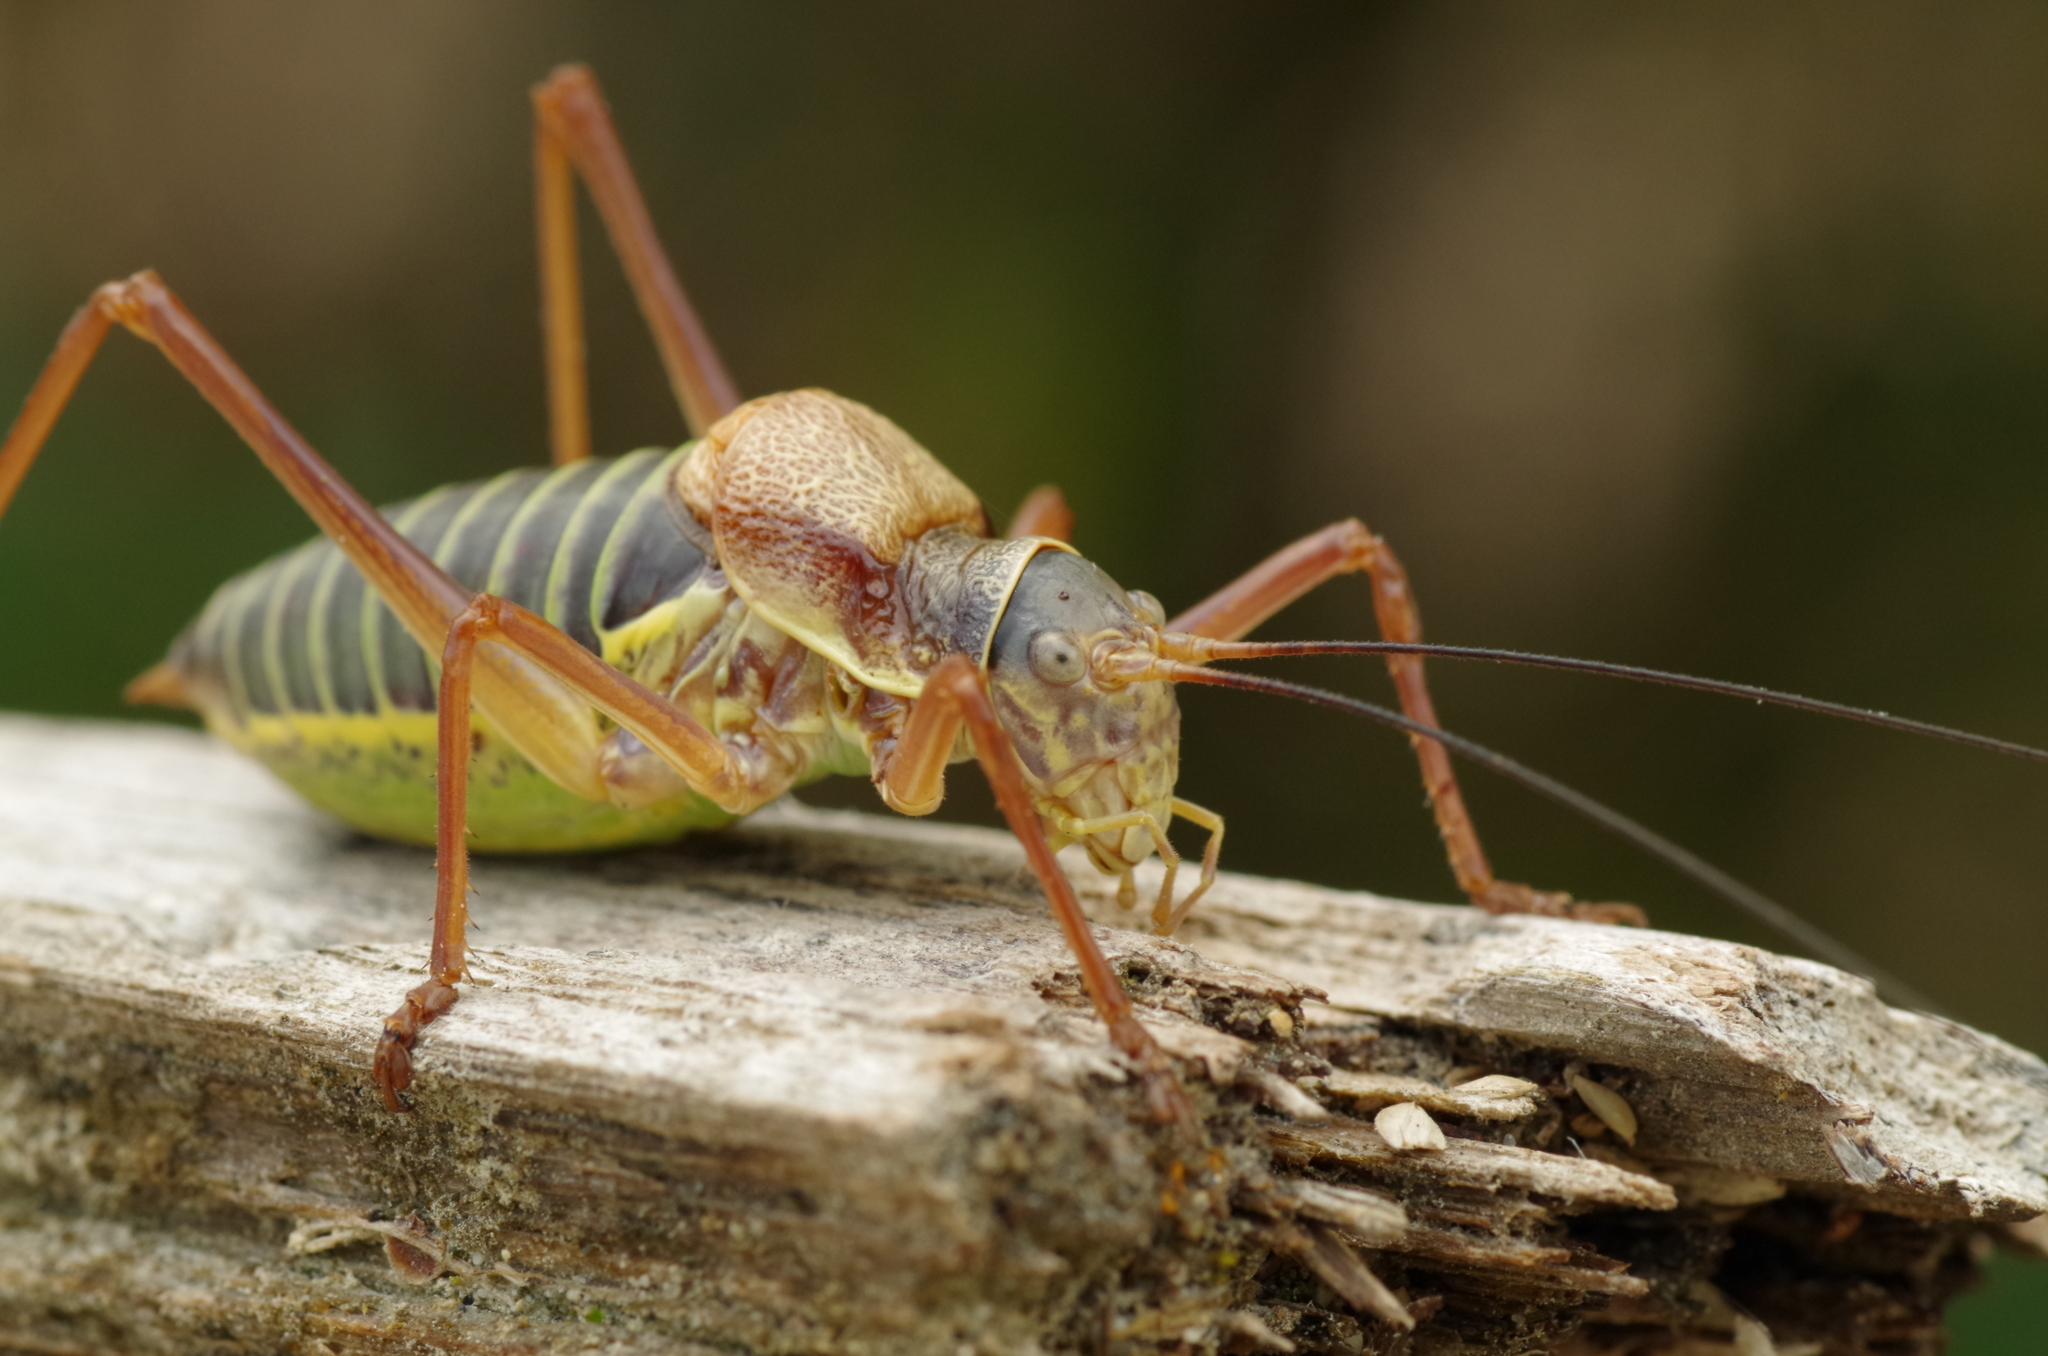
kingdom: Animalia
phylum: Arthropoda
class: Insecta
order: Orthoptera
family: Tettigoniidae
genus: Ephippiger
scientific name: Ephippiger diurnus
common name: Western saddle bush-cricket
